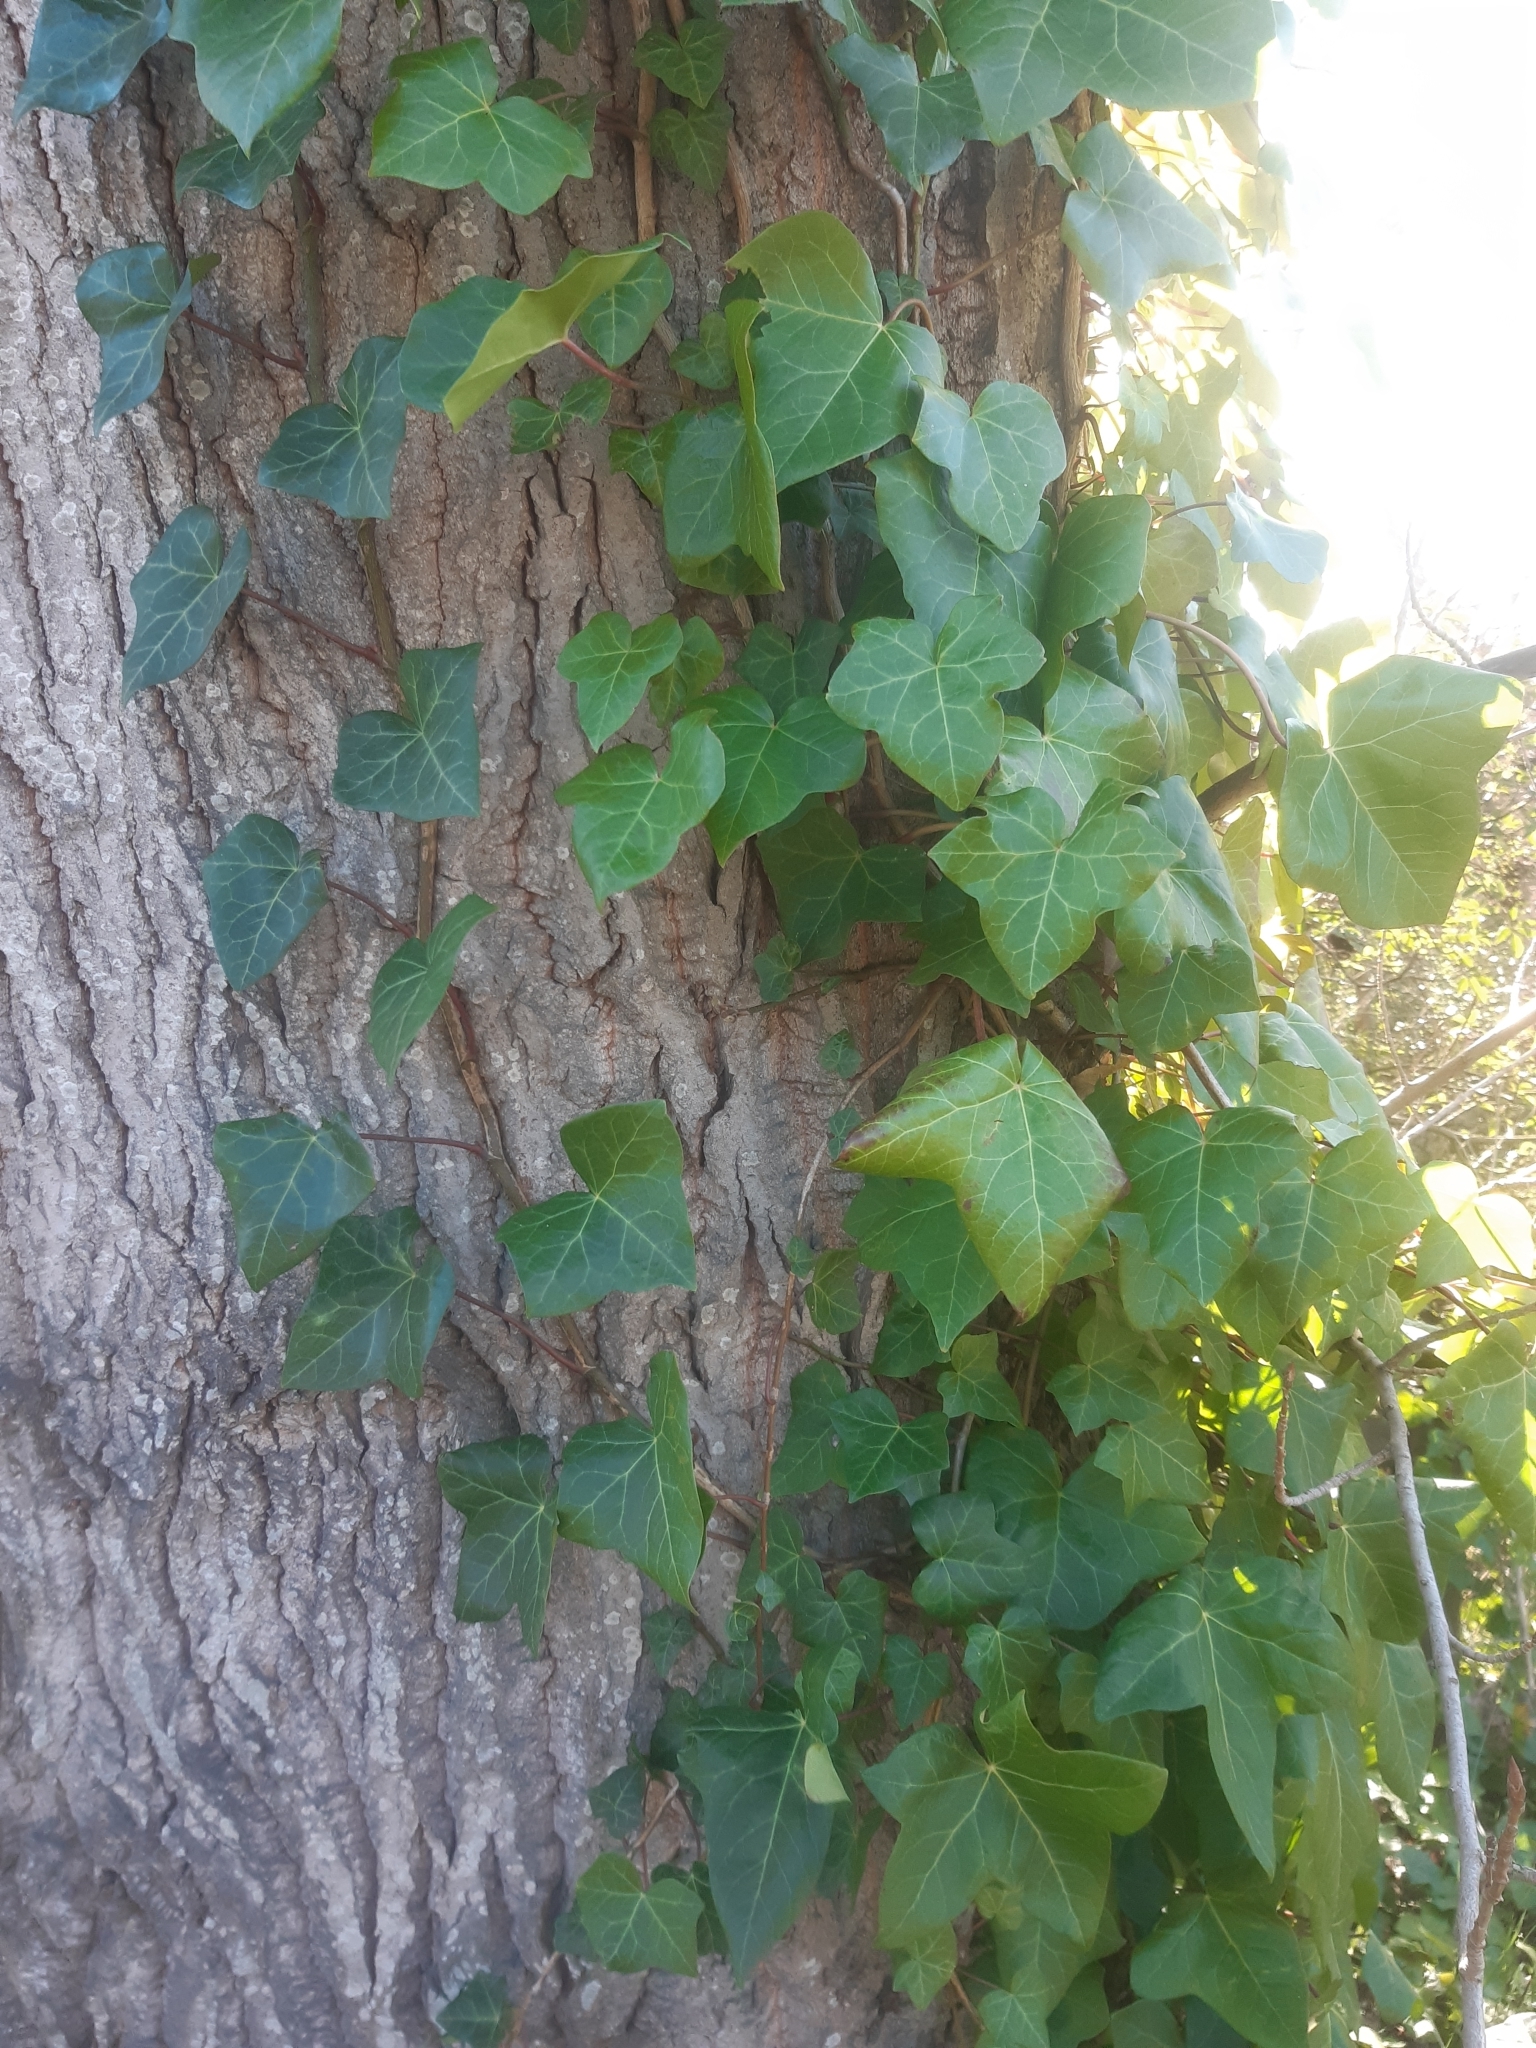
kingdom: Plantae
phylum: Tracheophyta
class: Magnoliopsida
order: Apiales
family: Araliaceae
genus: Hedera
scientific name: Hedera helix
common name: Ivy
